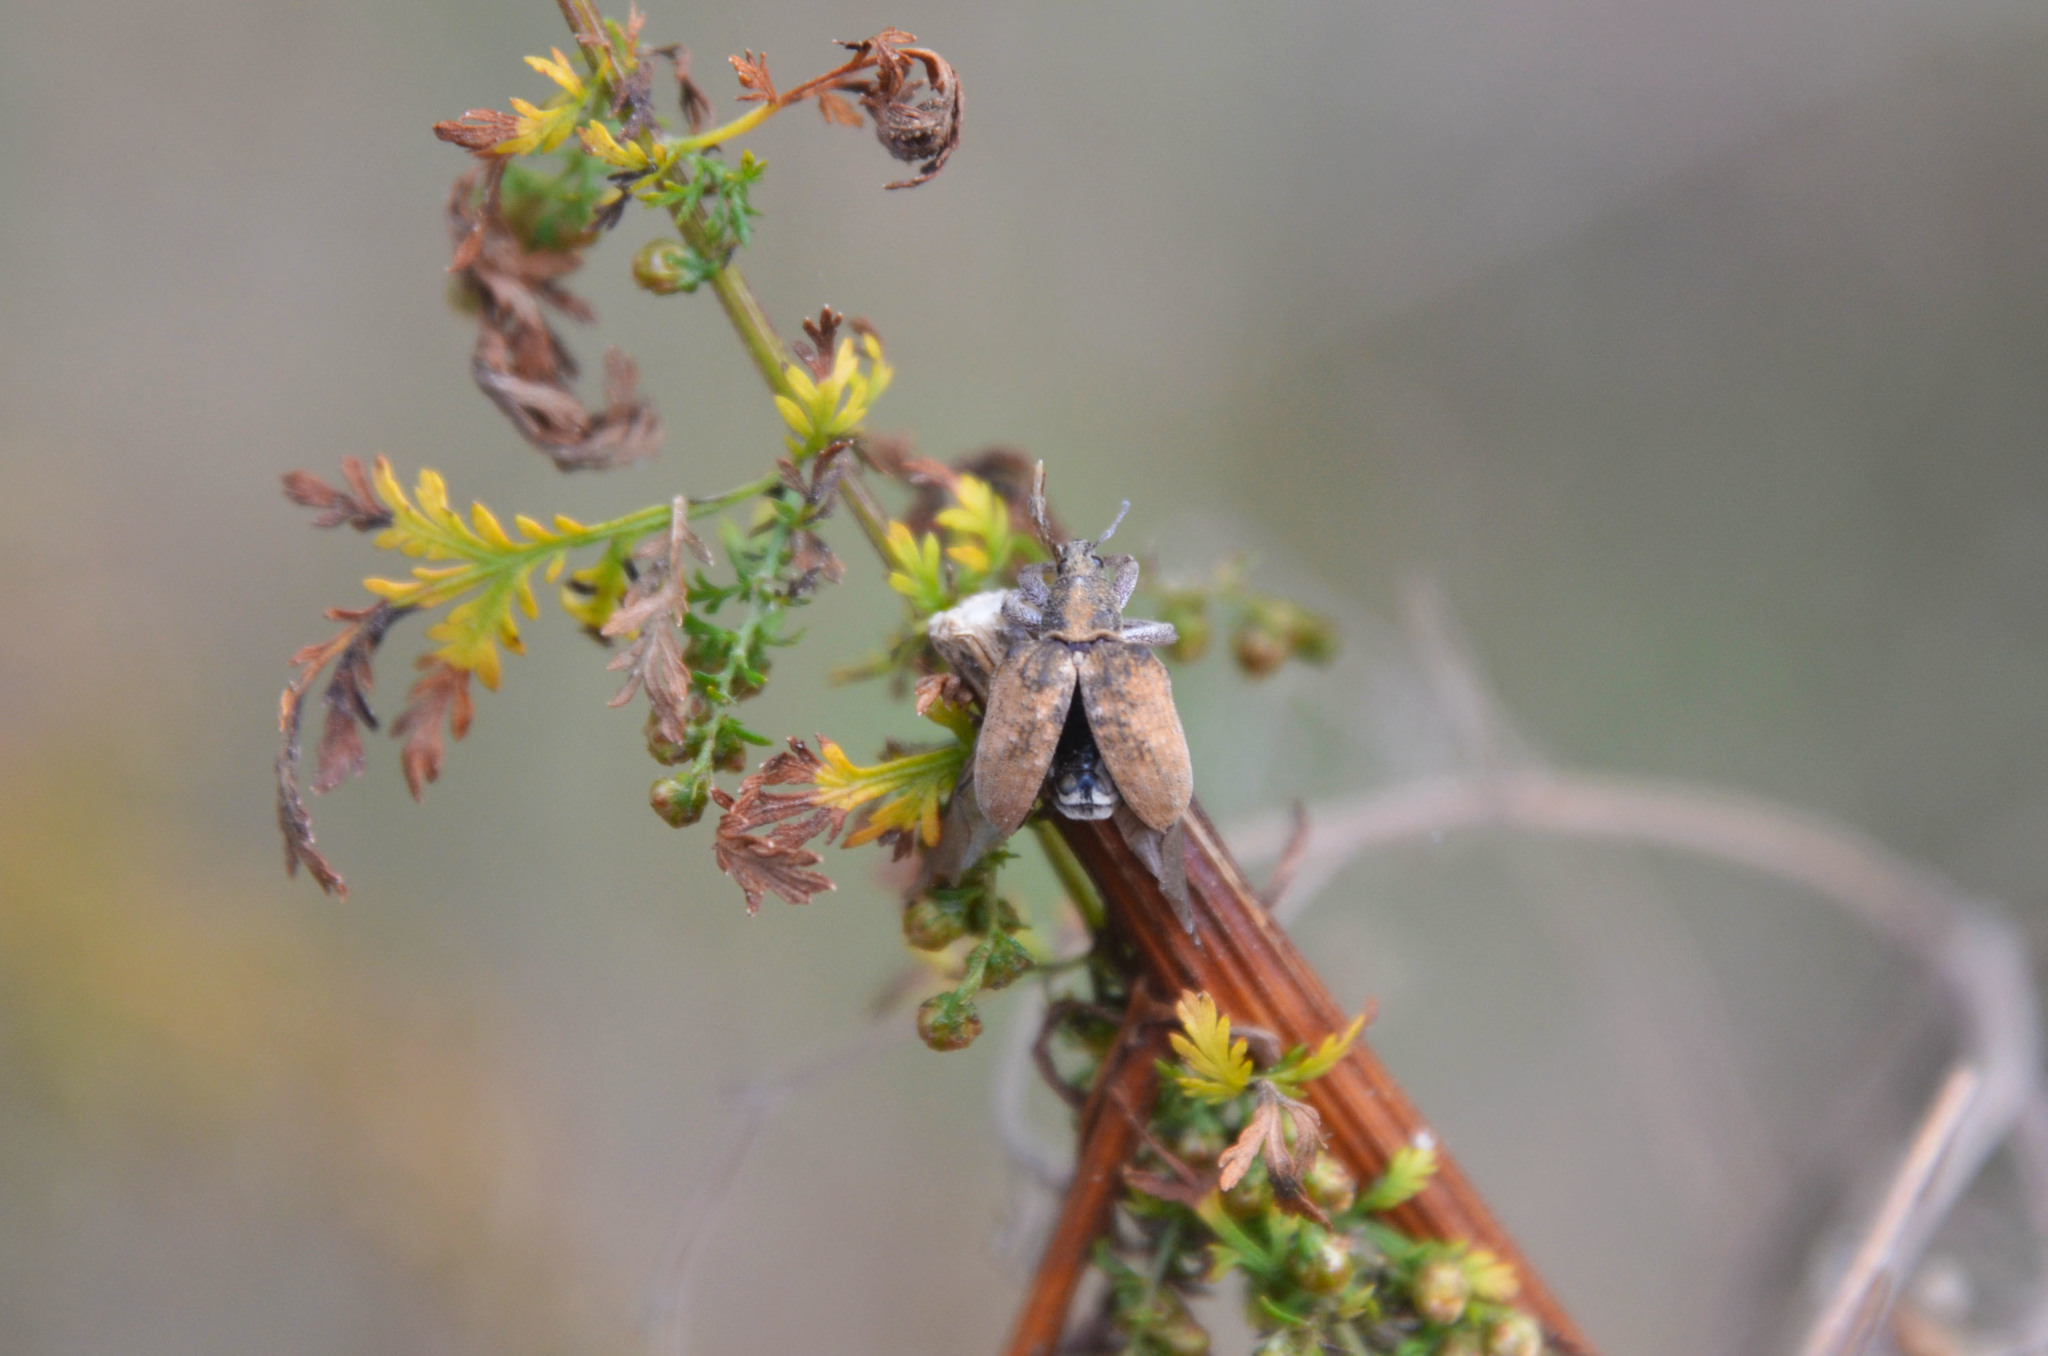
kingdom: Animalia
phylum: Arthropoda
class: Insecta
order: Coleoptera
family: Curculionidae
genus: Gonipterus
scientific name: Gonipterus platensis
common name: Eucalyptus snout beetle
